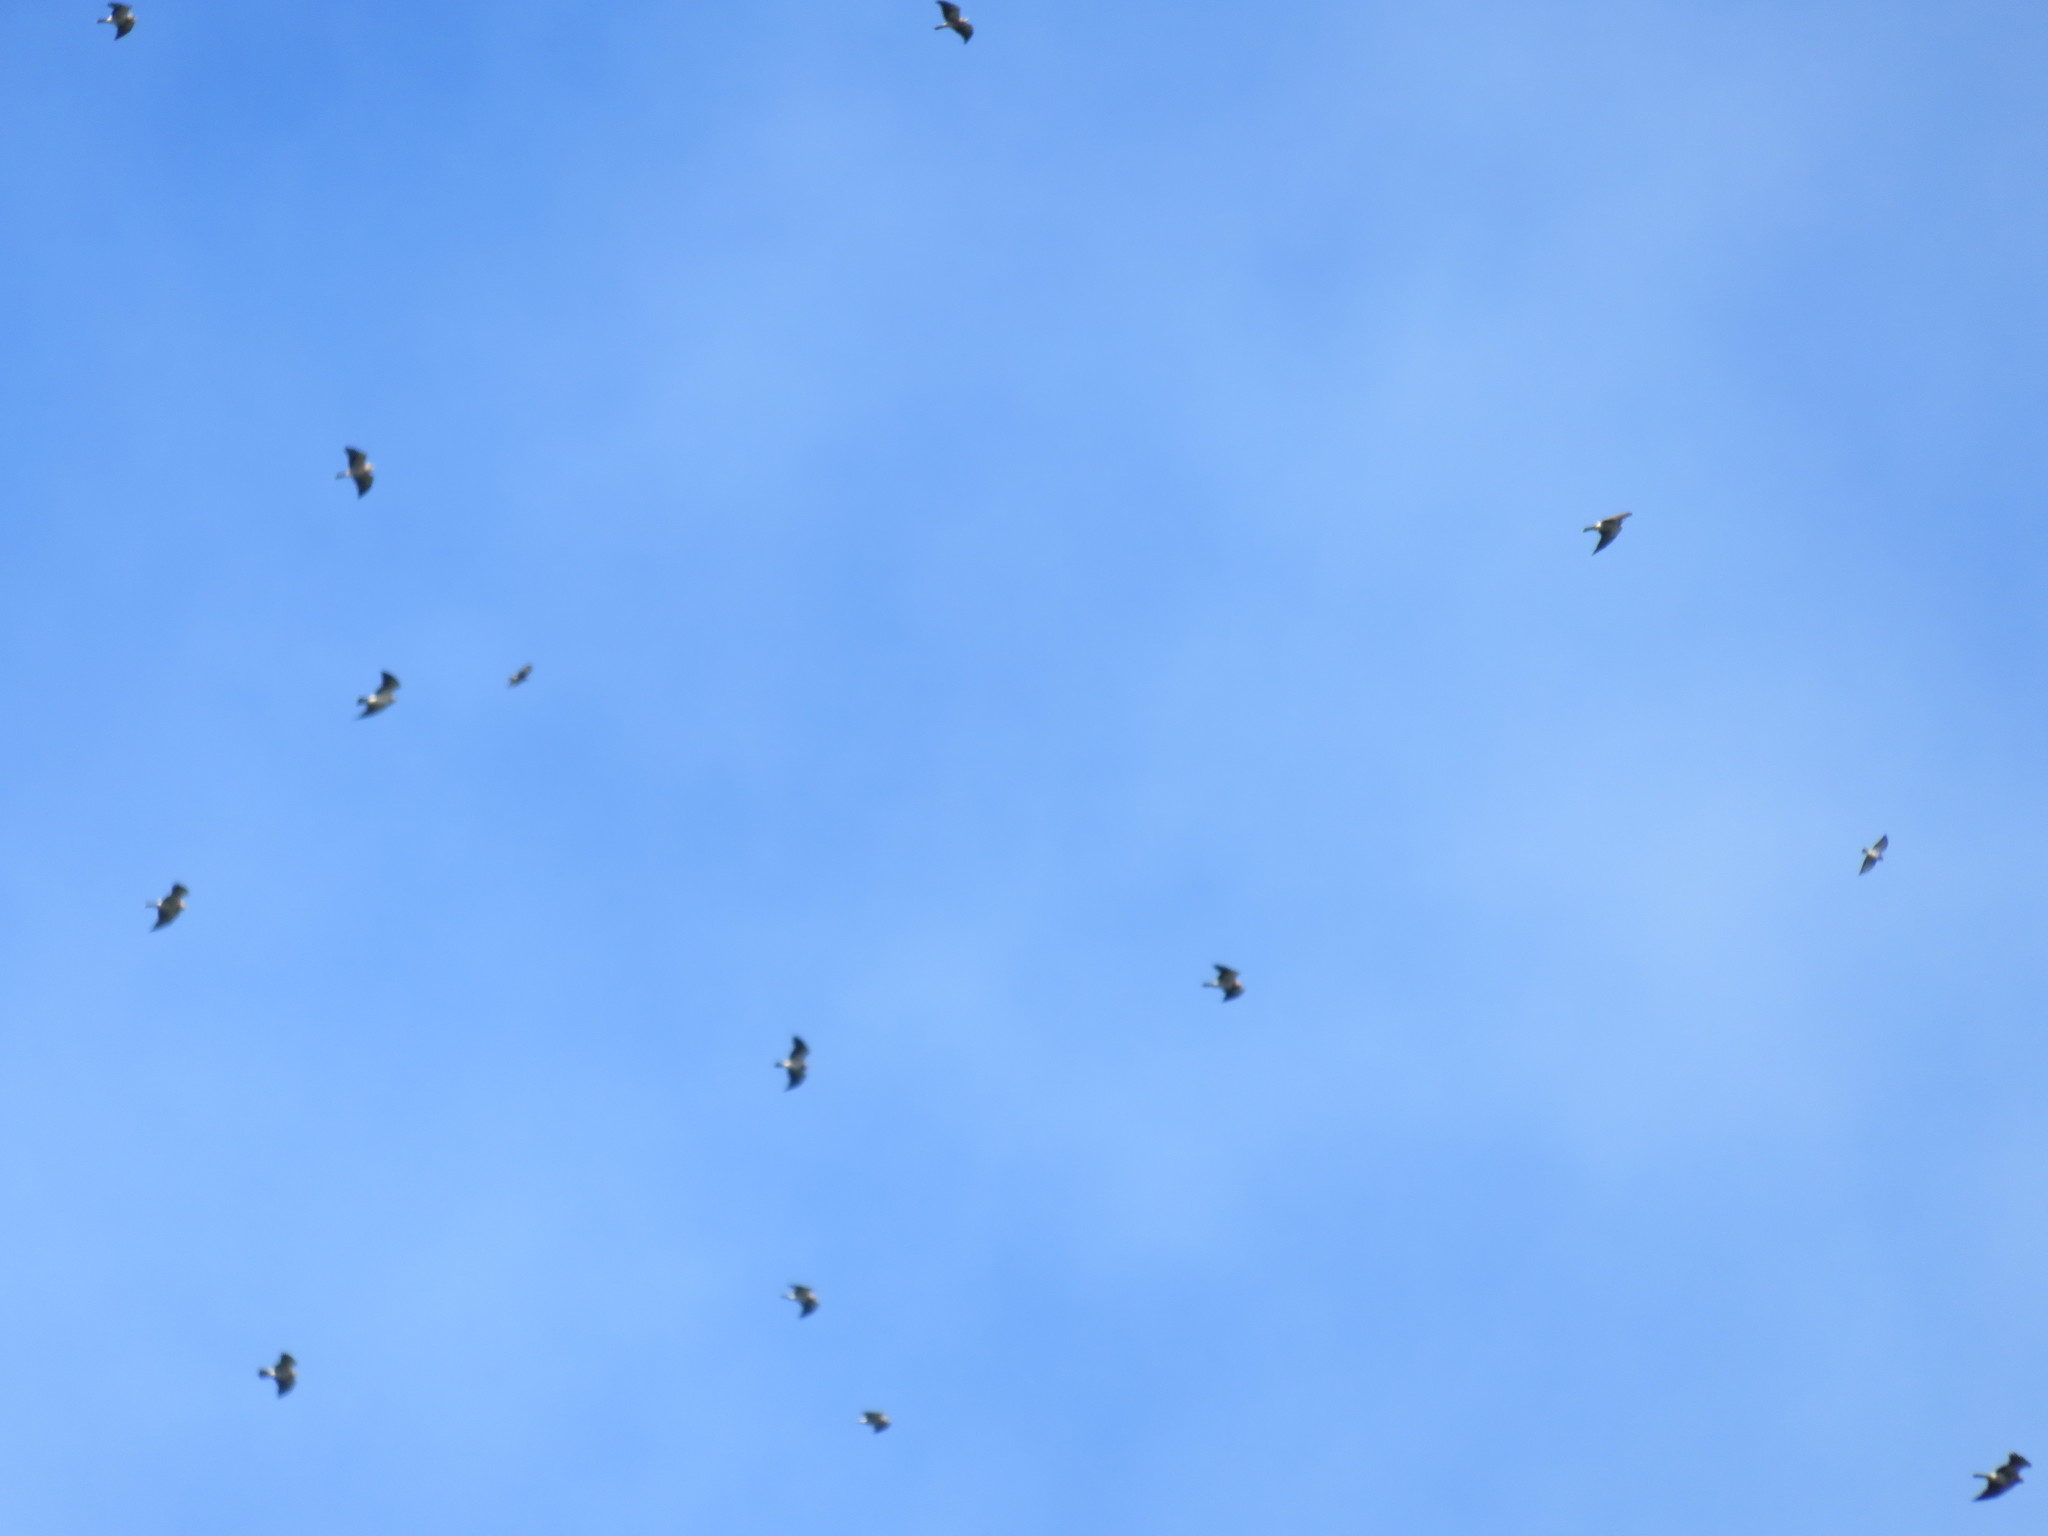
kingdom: Animalia
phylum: Chordata
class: Aves
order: Accipitriformes
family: Accipitridae
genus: Buteo
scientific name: Buteo swainsoni
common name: Swainson's hawk
